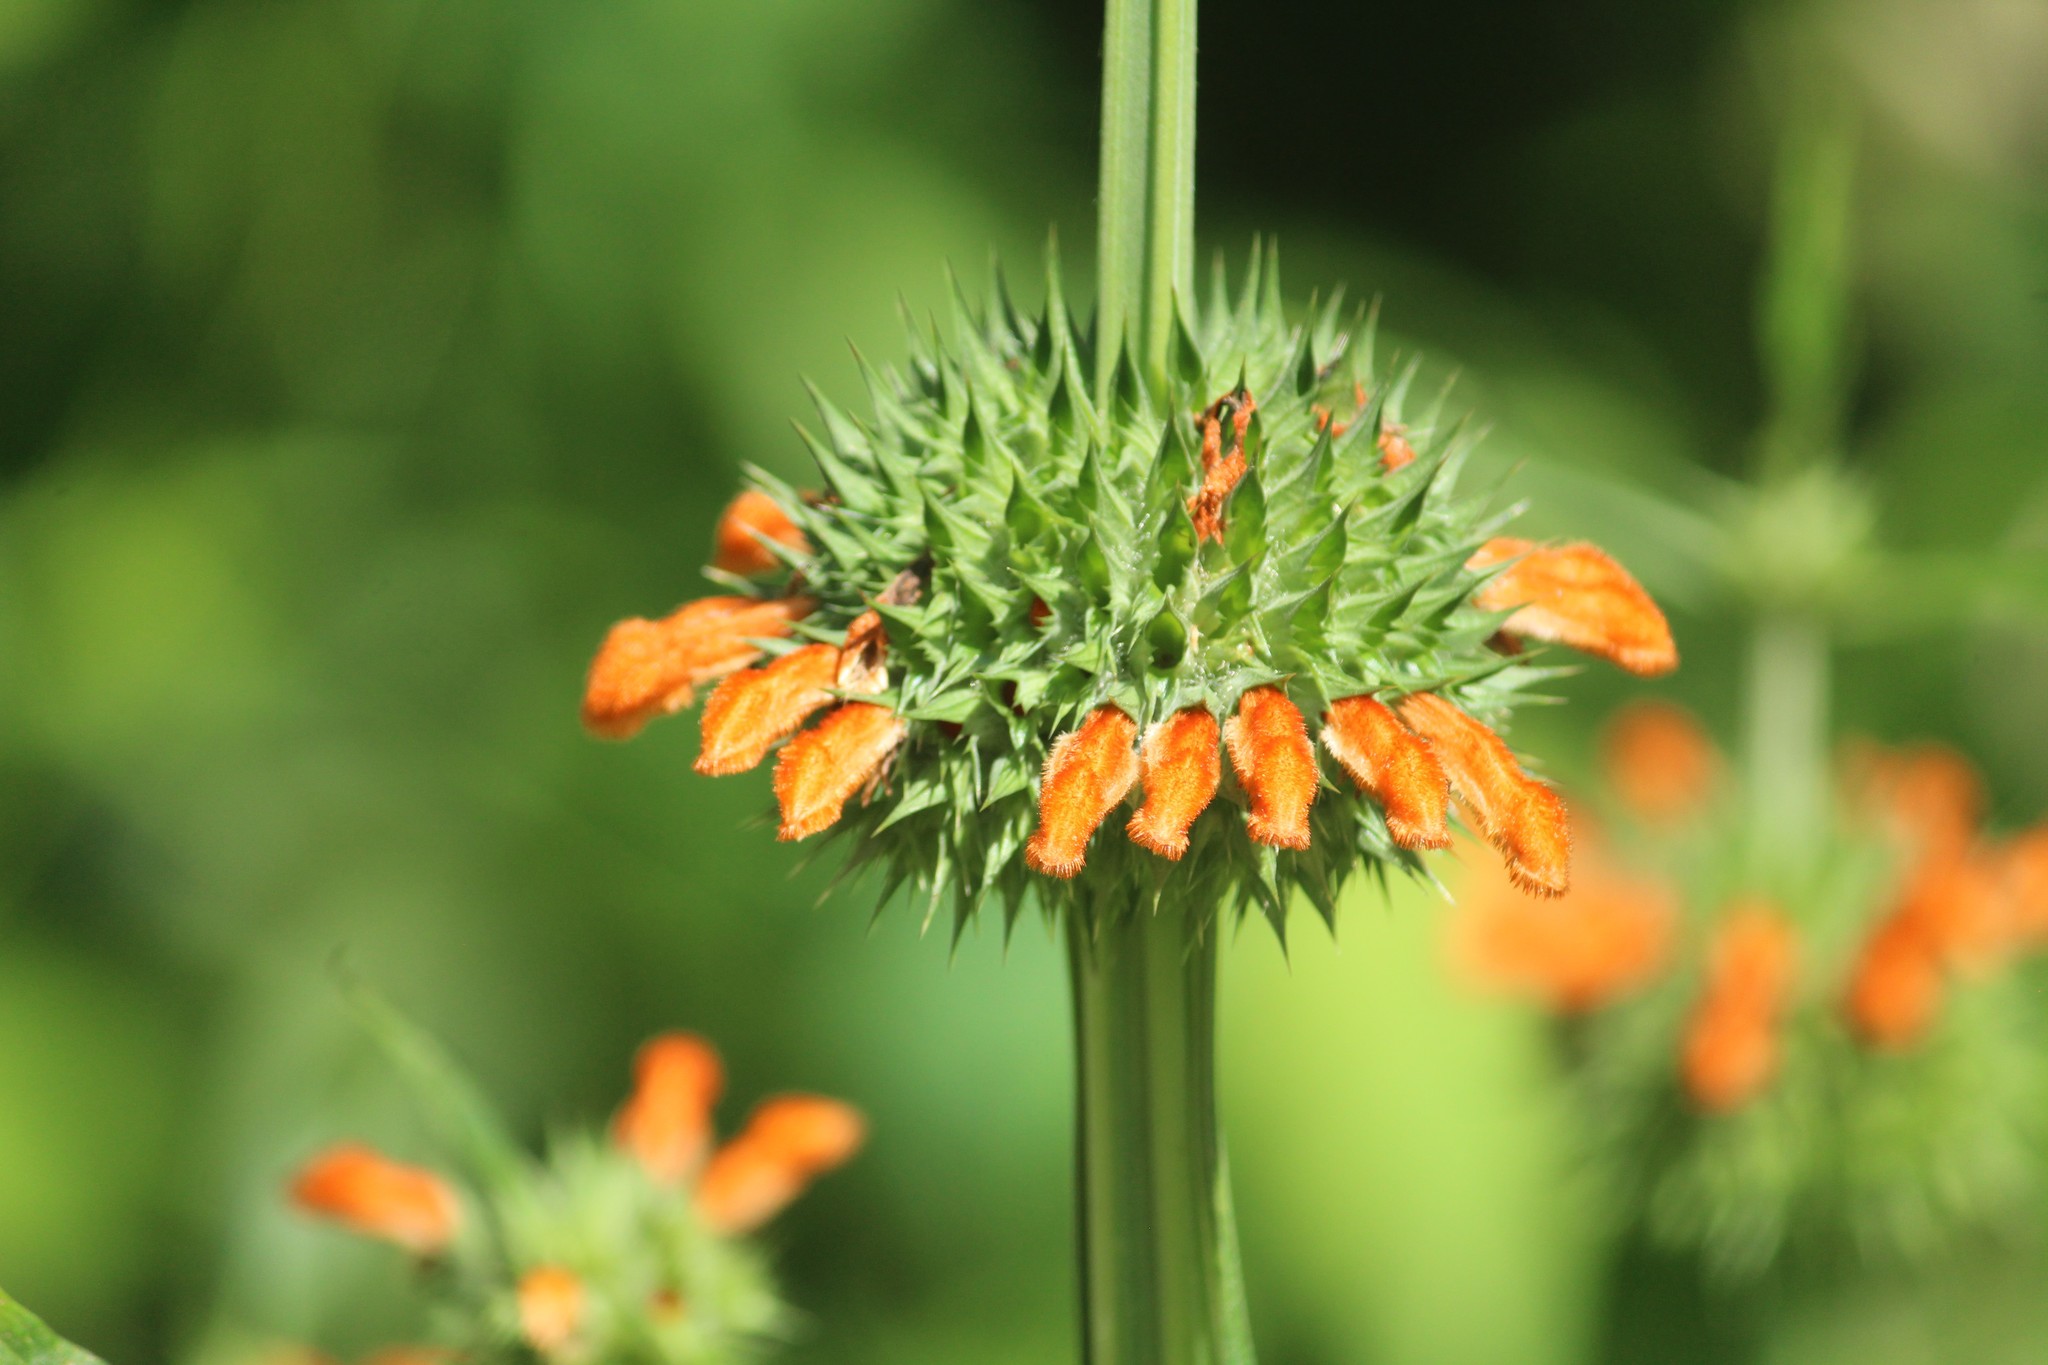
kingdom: Plantae
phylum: Tracheophyta
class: Magnoliopsida
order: Lamiales
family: Lamiaceae
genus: Leonotis
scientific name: Leonotis nepetifolia
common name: Christmas candlestick
